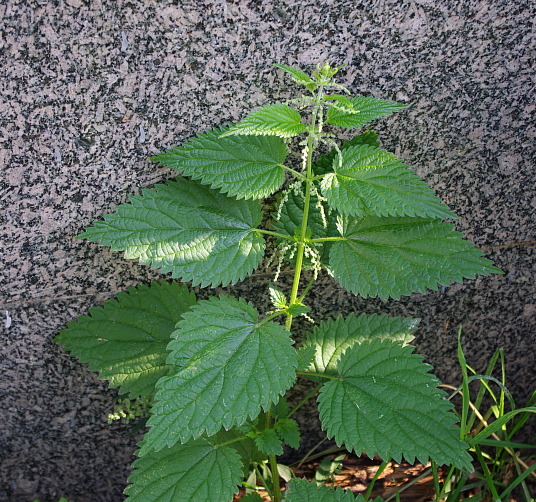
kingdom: Plantae
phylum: Tracheophyta
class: Magnoliopsida
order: Rosales
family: Urticaceae
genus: Urtica
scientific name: Urtica dioica
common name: Common nettle
